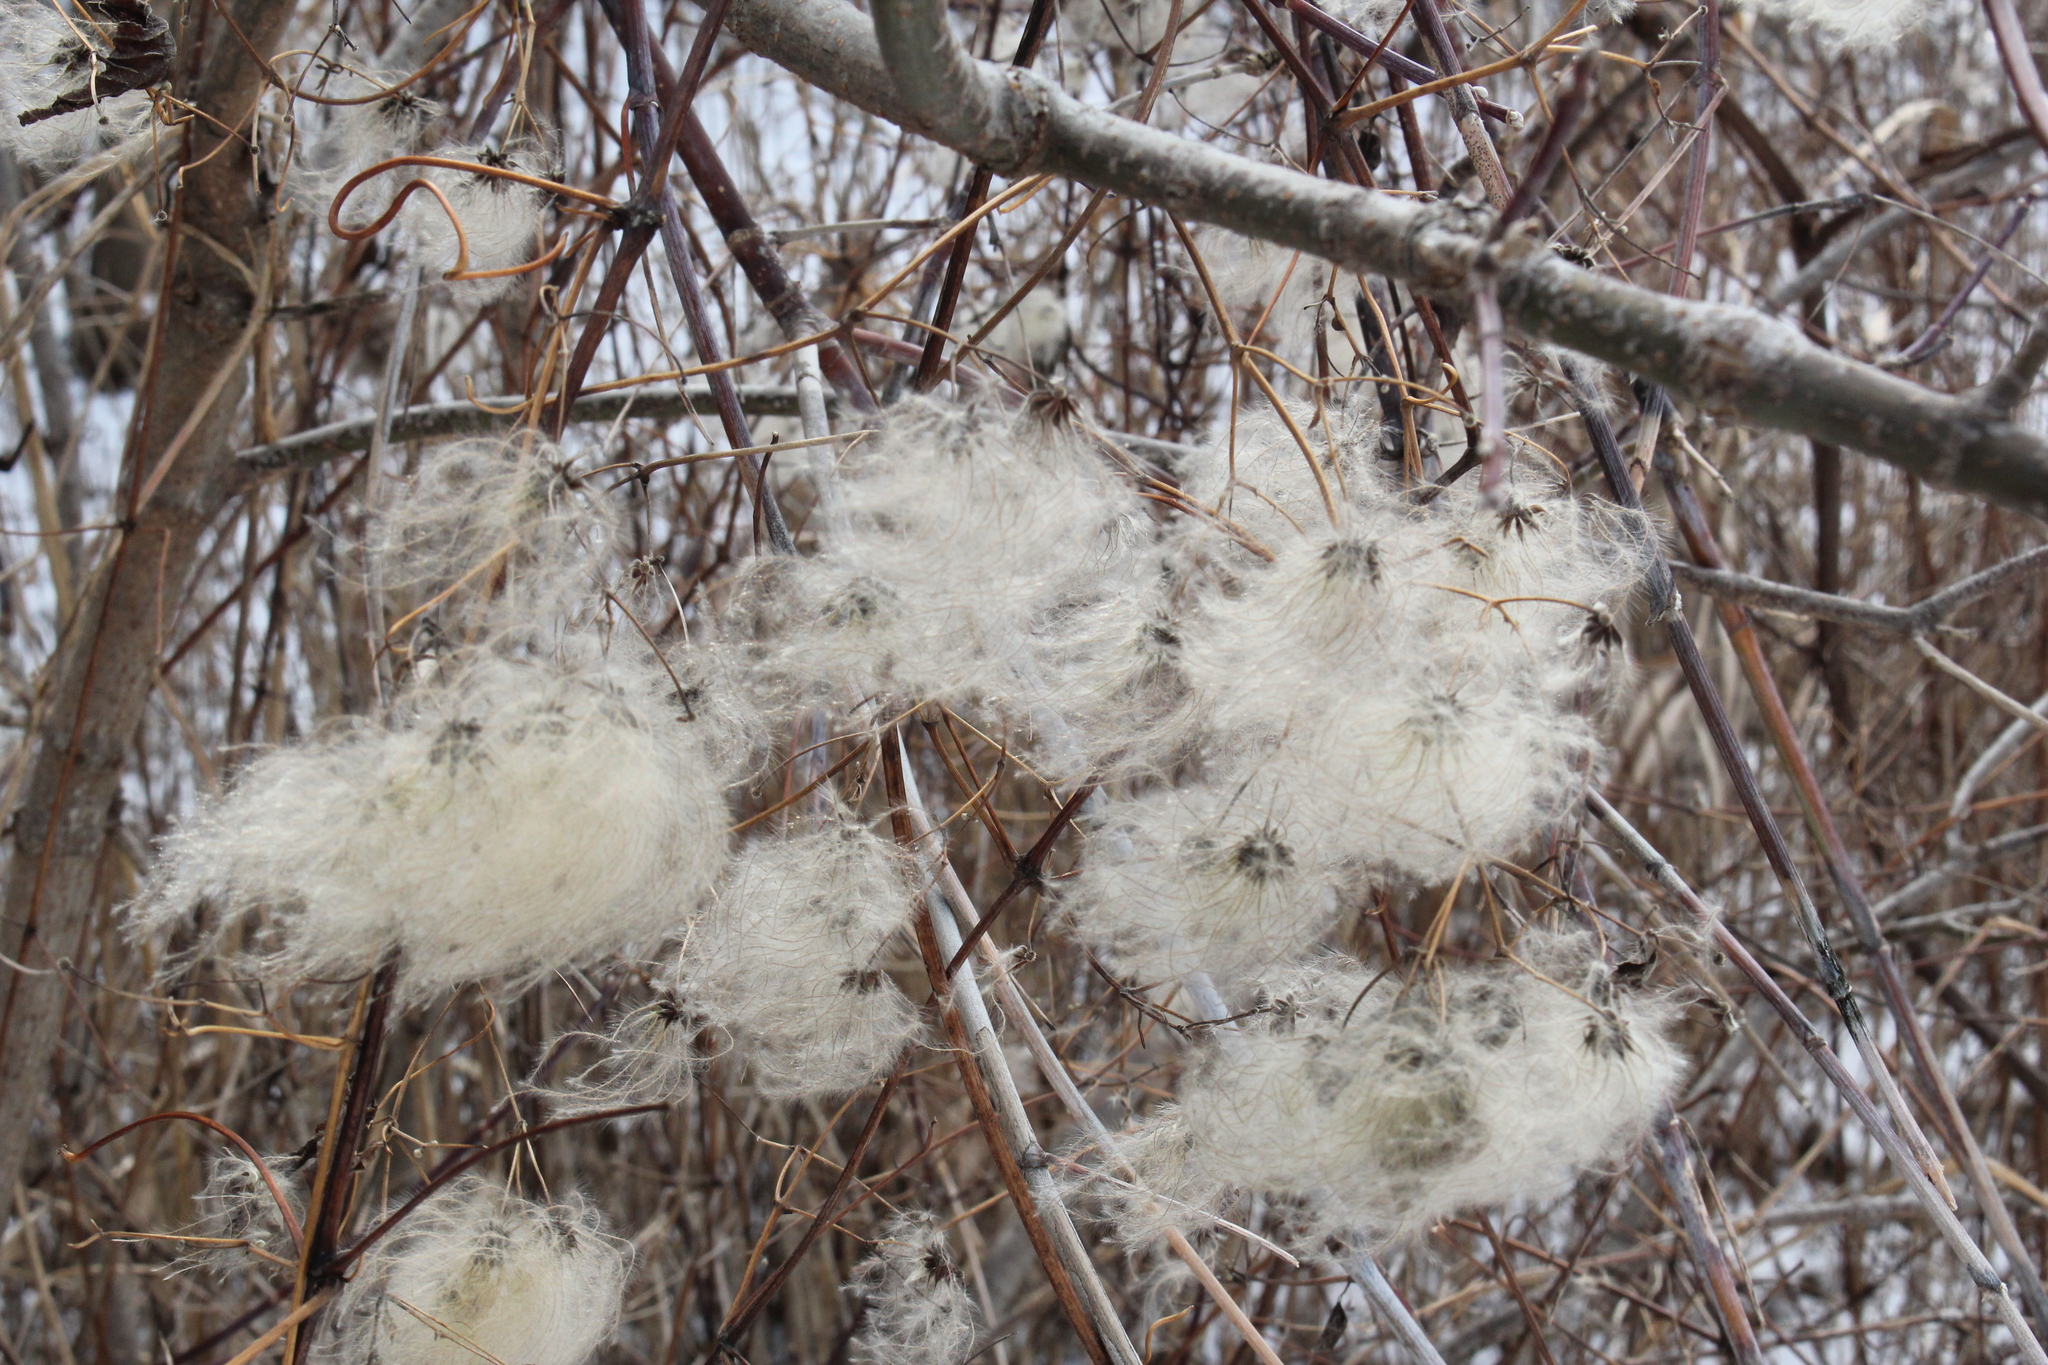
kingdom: Plantae
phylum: Tracheophyta
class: Magnoliopsida
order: Ranunculales
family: Ranunculaceae
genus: Clematis
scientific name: Clematis virginiana
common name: Virgin's-bower
